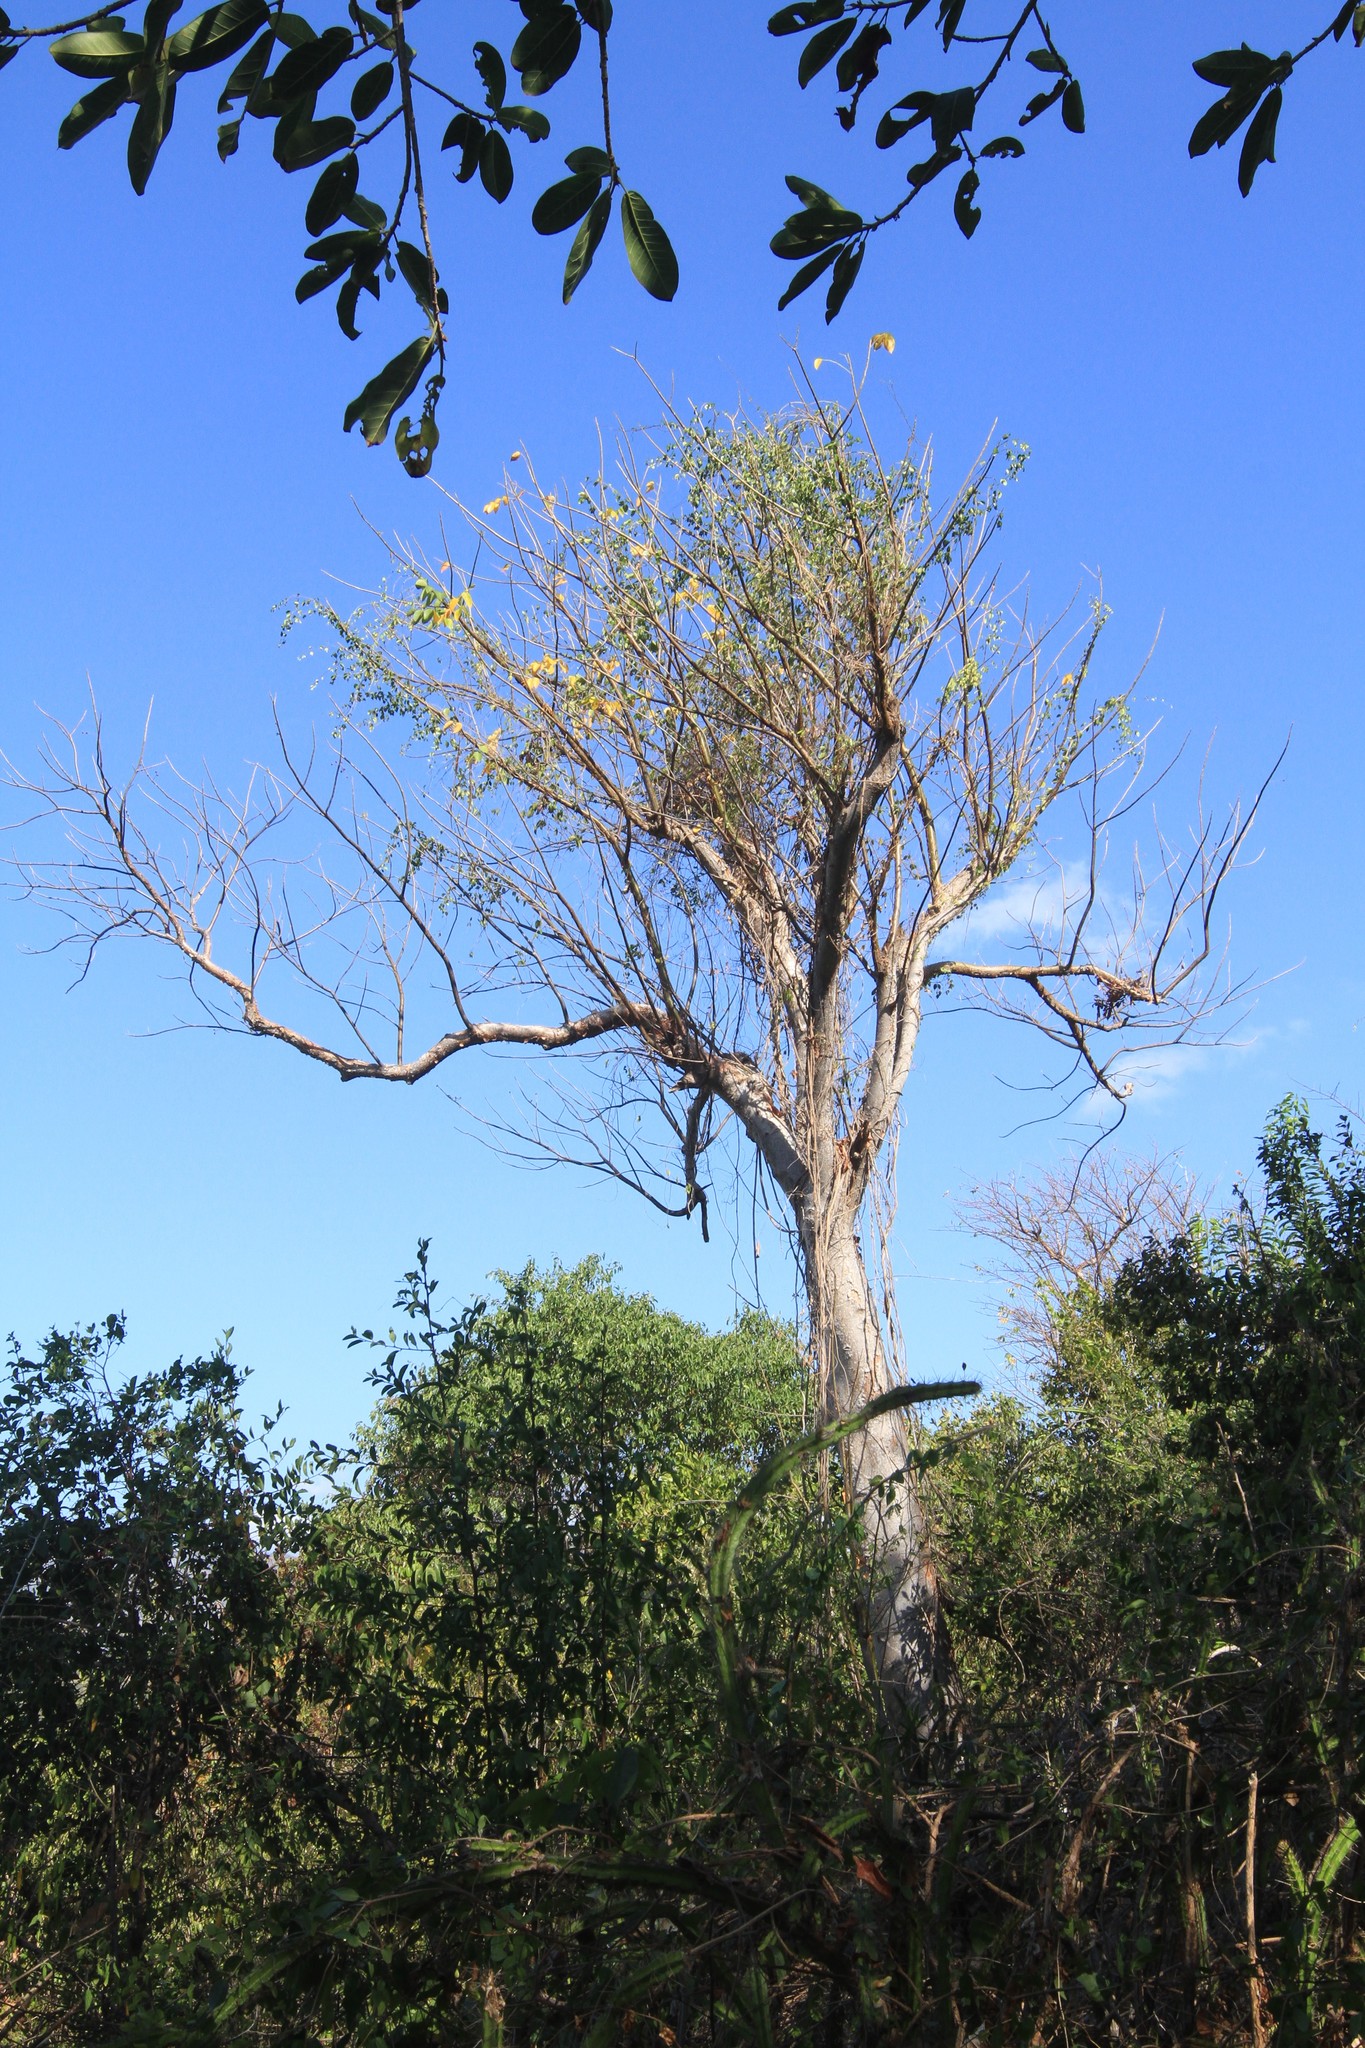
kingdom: Plantae
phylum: Tracheophyta
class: Magnoliopsida
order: Sapindales
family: Burseraceae
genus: Bursera
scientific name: Bursera simaruba
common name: Turpentine tree
